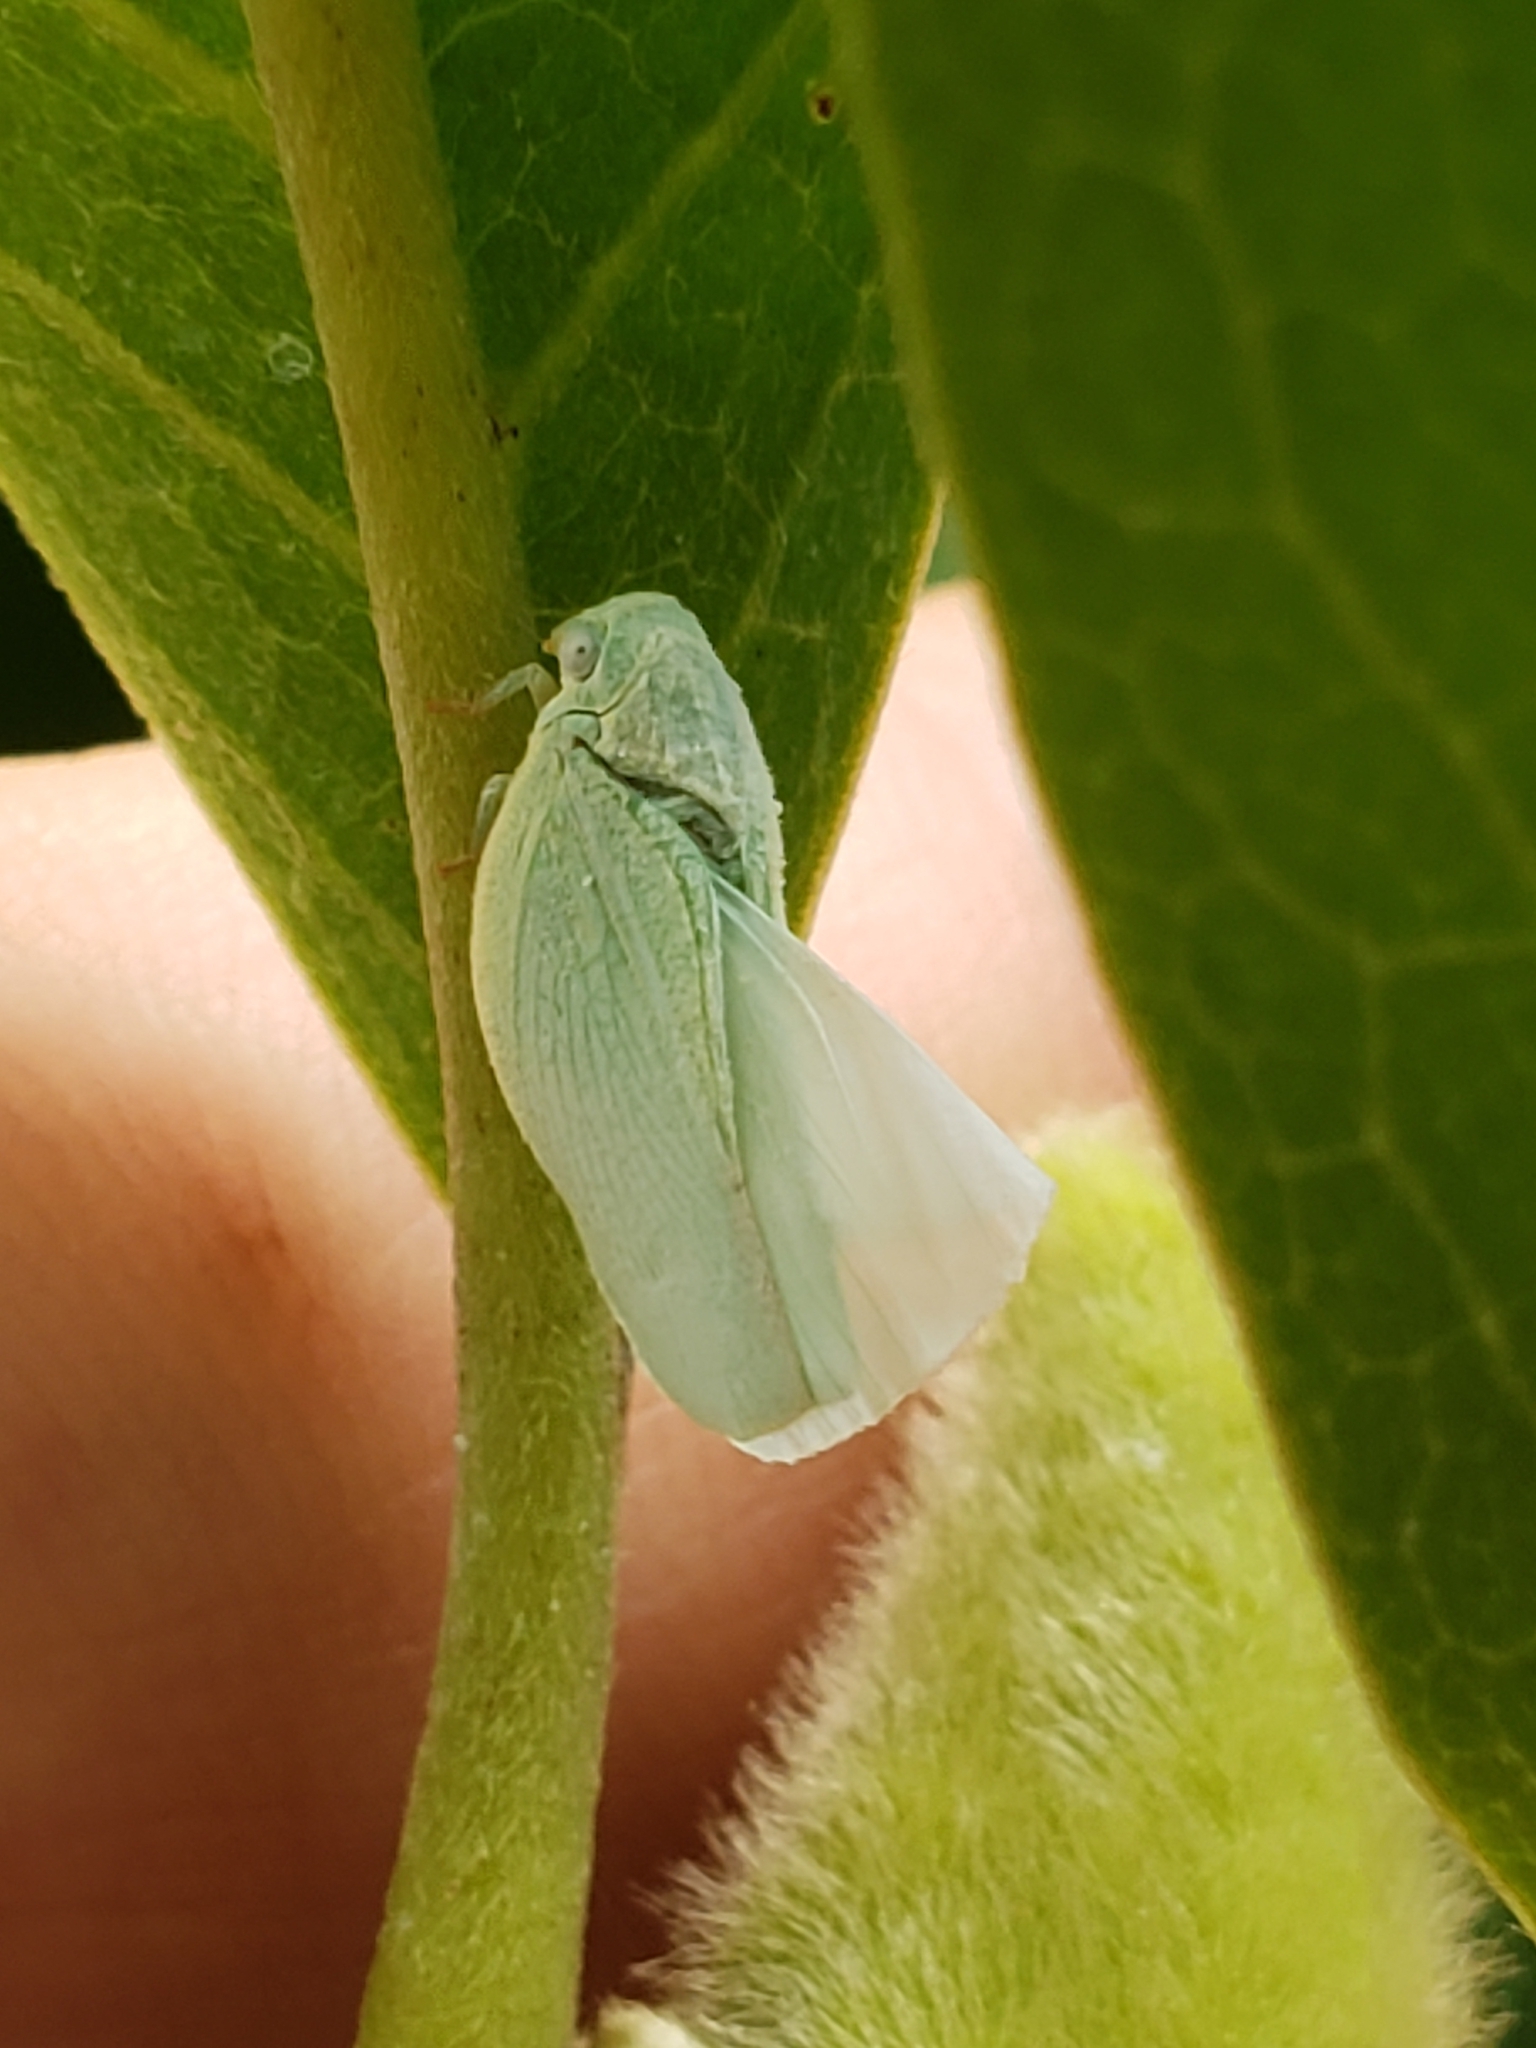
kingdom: Animalia
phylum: Arthropoda
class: Insecta
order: Hemiptera
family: Flatidae
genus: Flatormenis
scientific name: Flatormenis proxima
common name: Northern flatid planthopper
